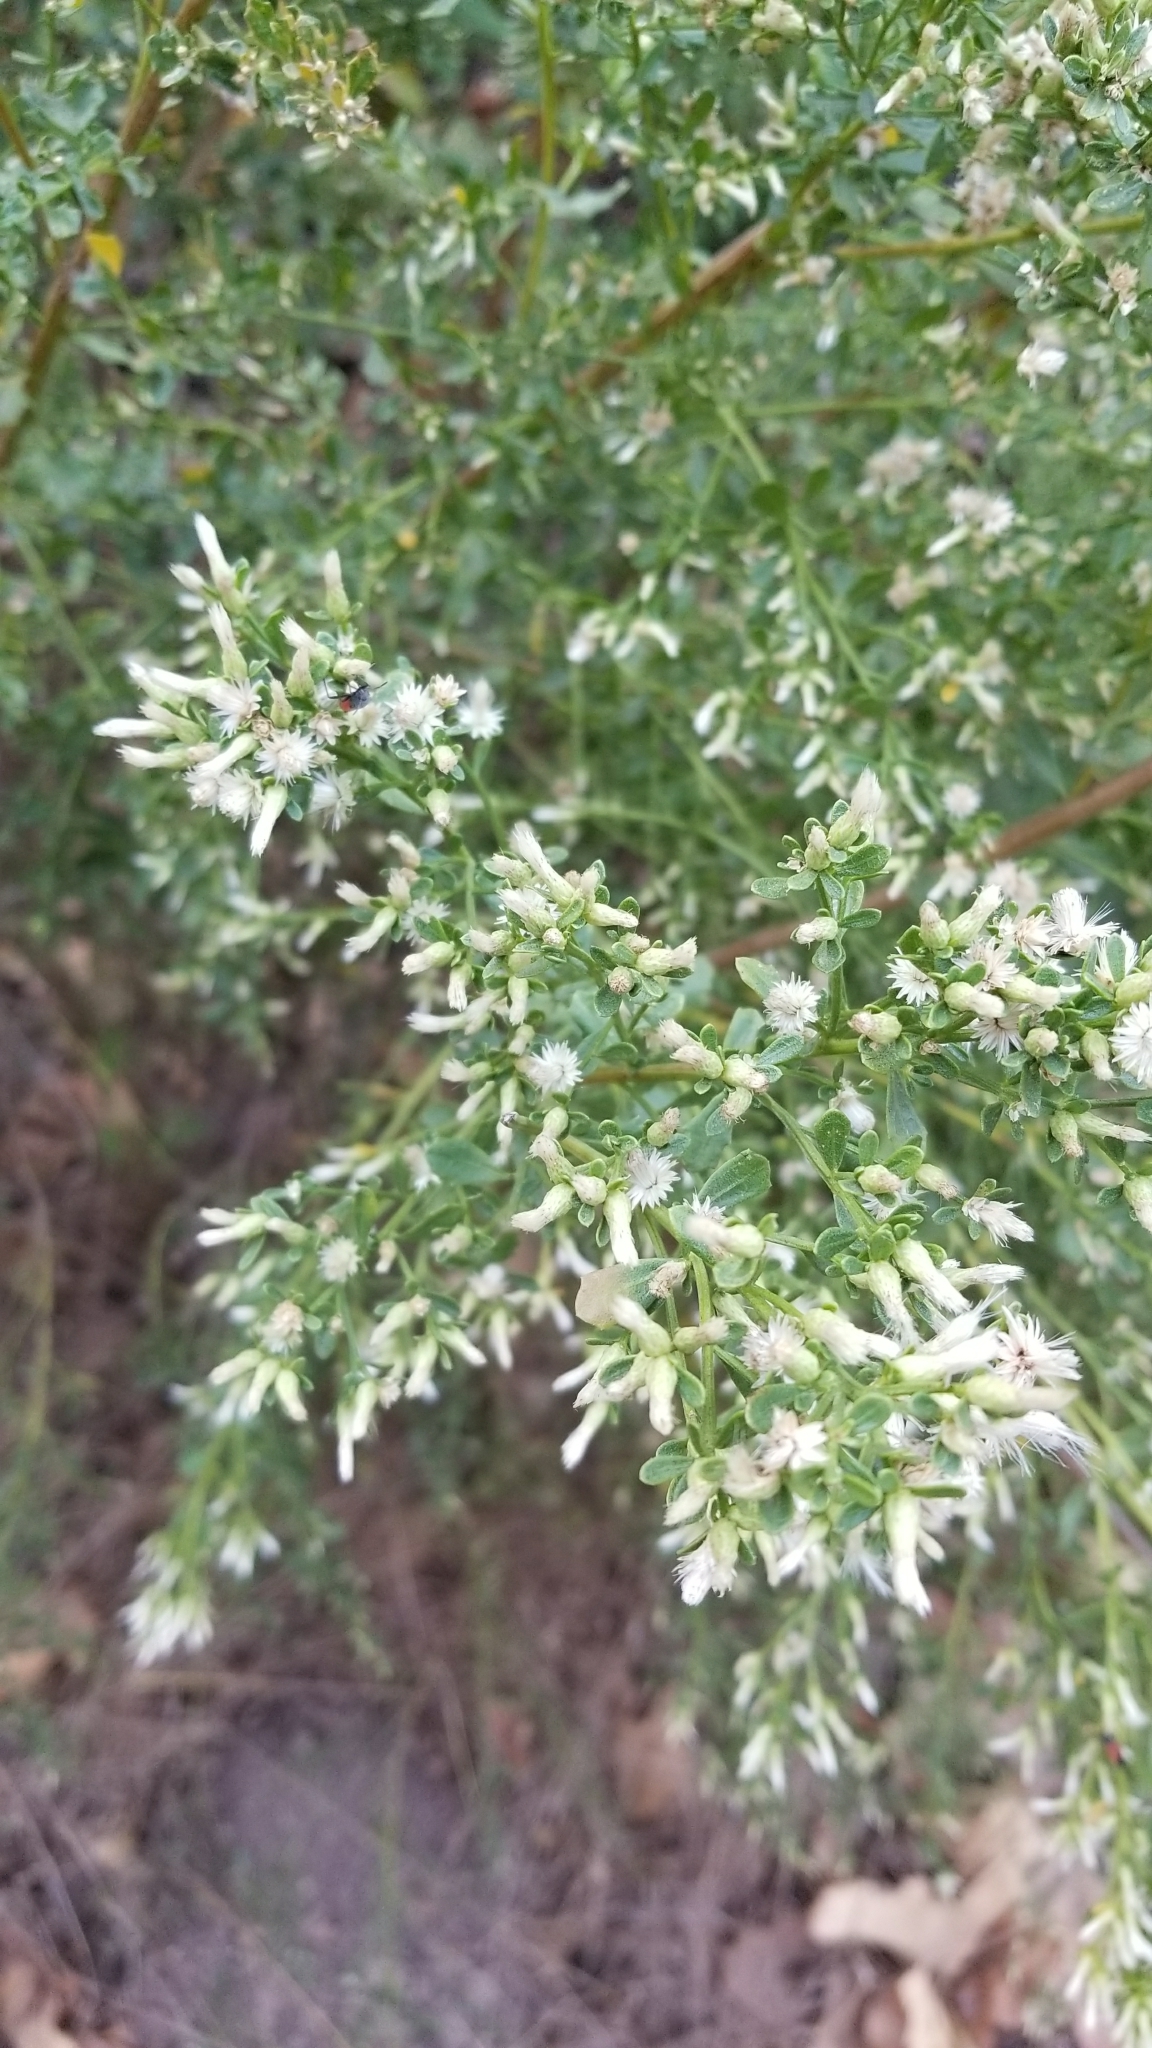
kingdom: Plantae
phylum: Tracheophyta
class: Magnoliopsida
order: Asterales
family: Asteraceae
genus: Baccharis
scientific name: Baccharis pilularis
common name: Coyotebrush
